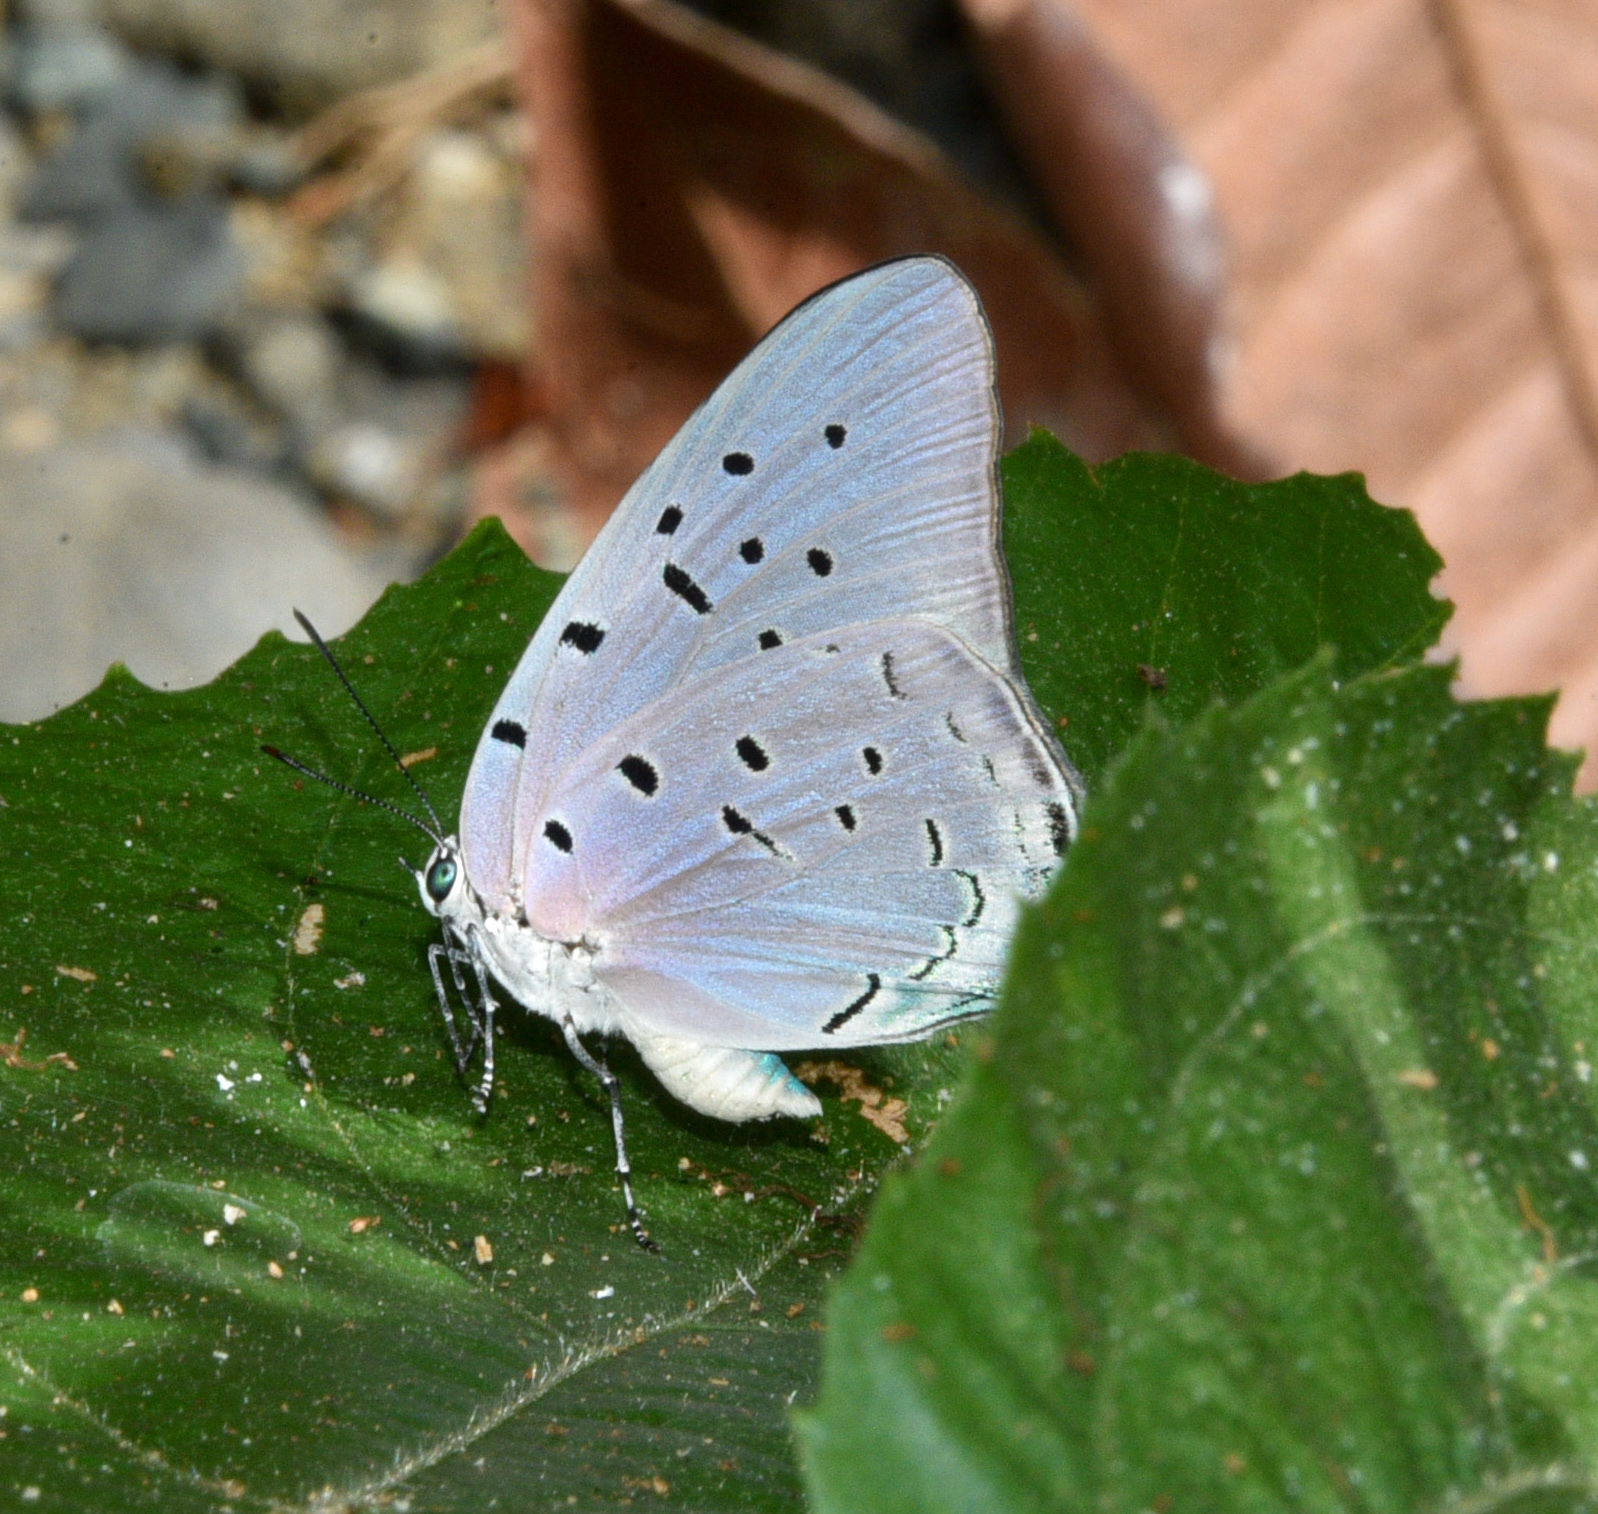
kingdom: Animalia
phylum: Arthropoda
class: Insecta
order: Lepidoptera
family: Lycaenidae
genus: Pseudolycaena
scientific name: Pseudolycaena damo
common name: Sky-blue hairstreak
